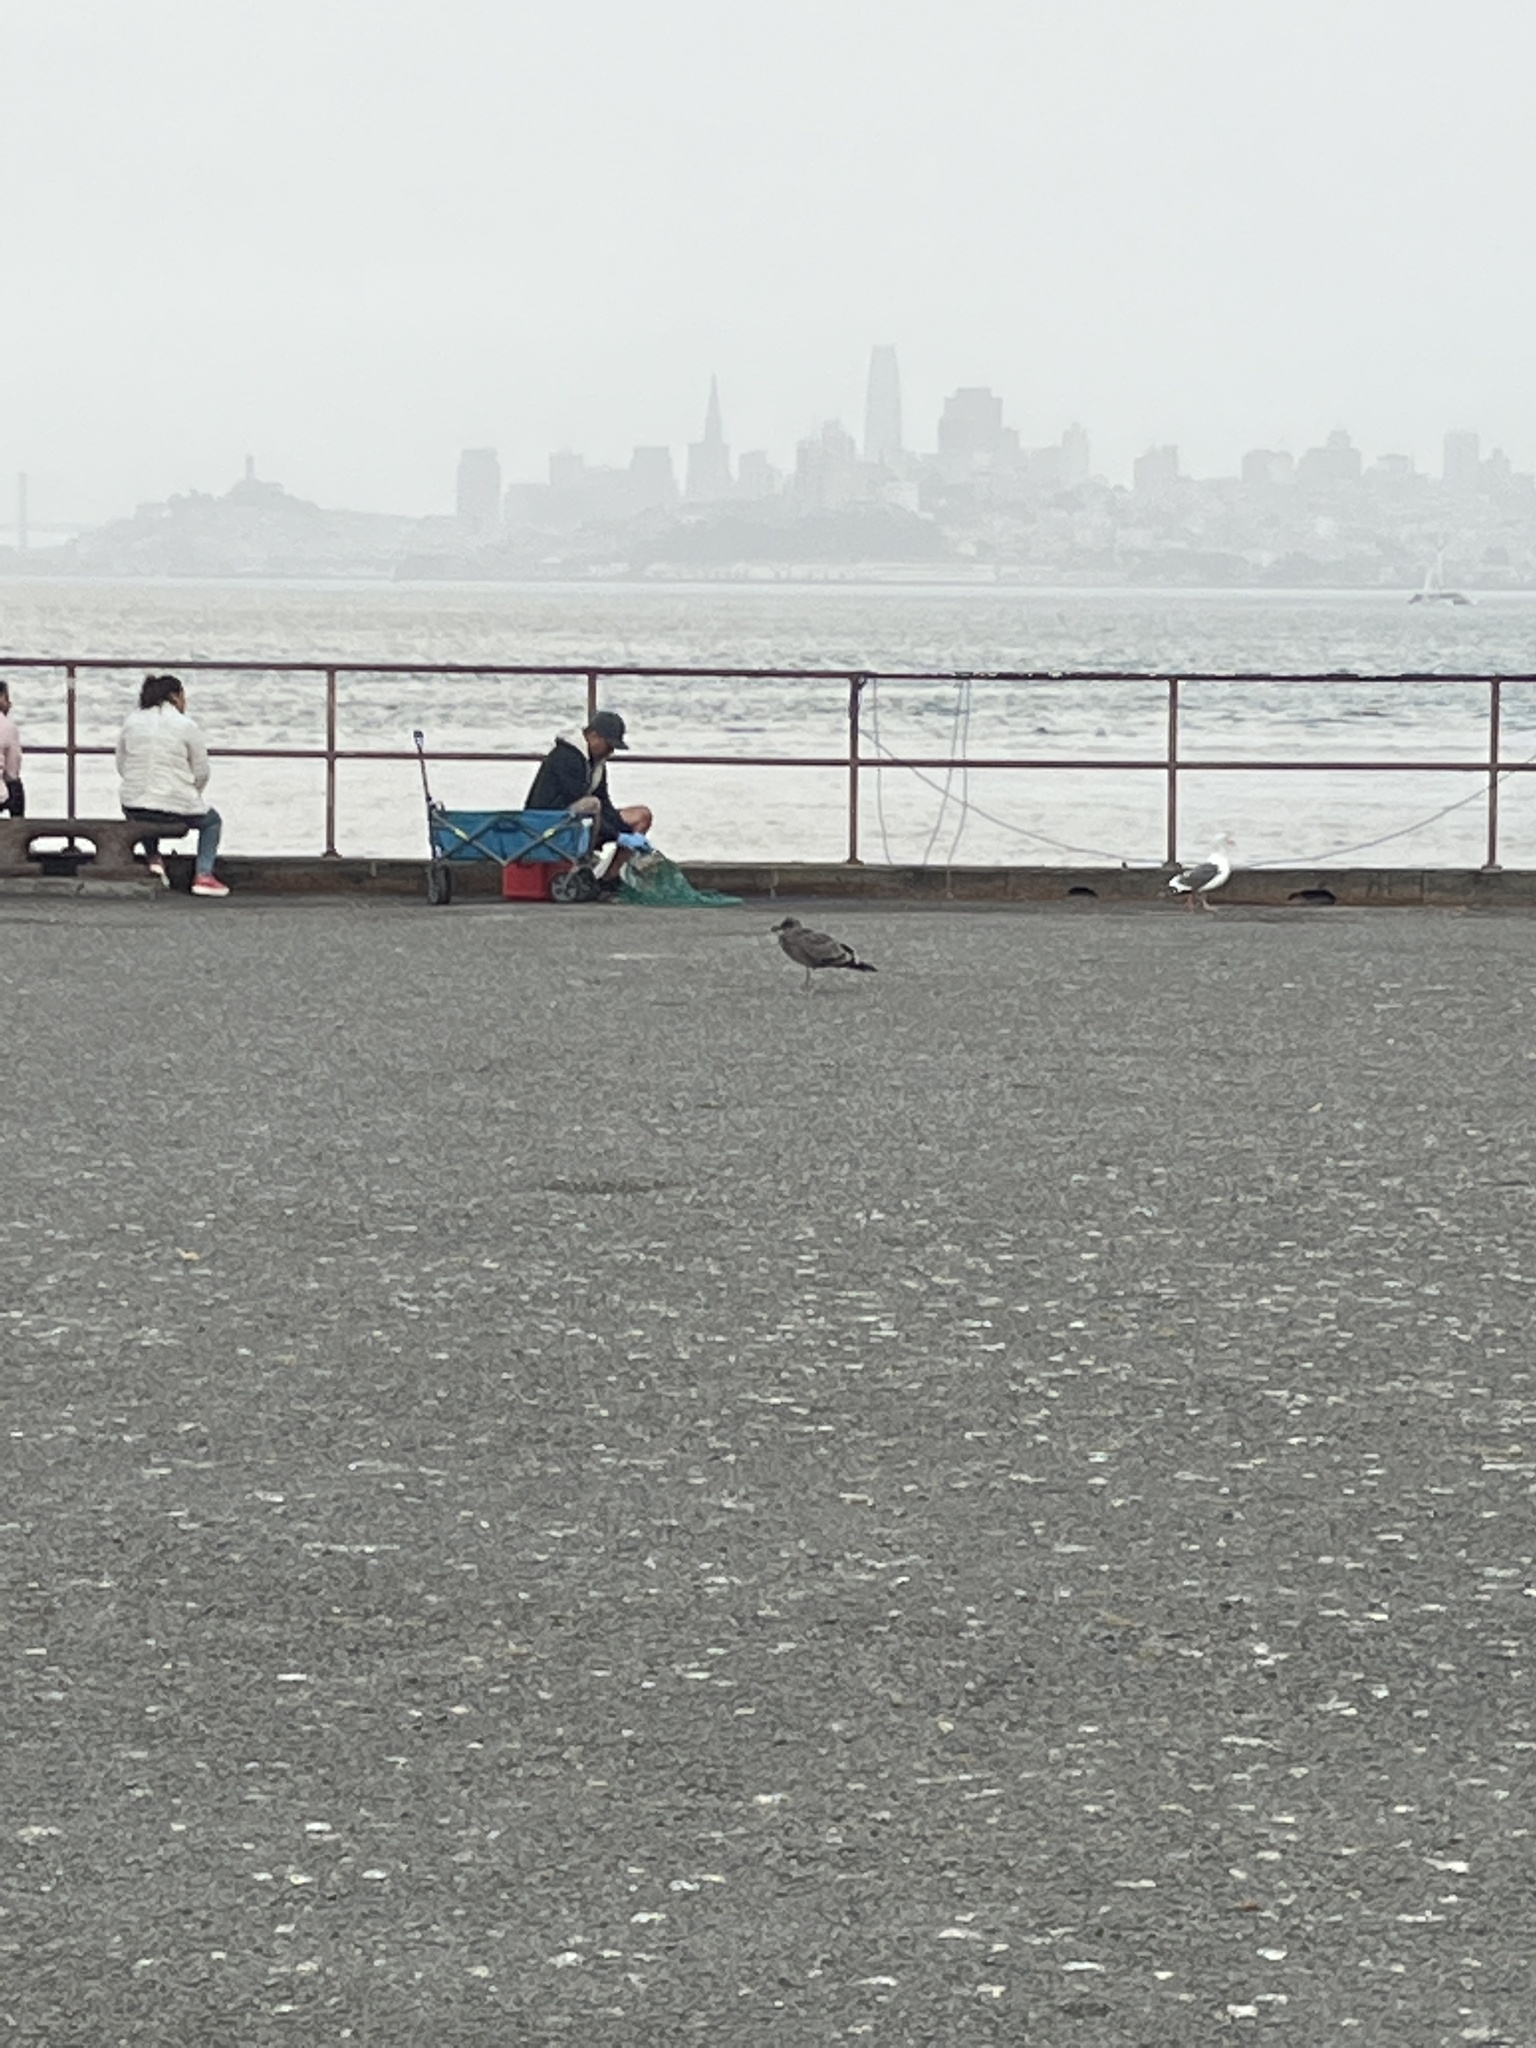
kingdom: Animalia
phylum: Chordata
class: Aves
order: Charadriiformes
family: Laridae
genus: Larus
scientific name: Larus occidentalis
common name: Western gull
